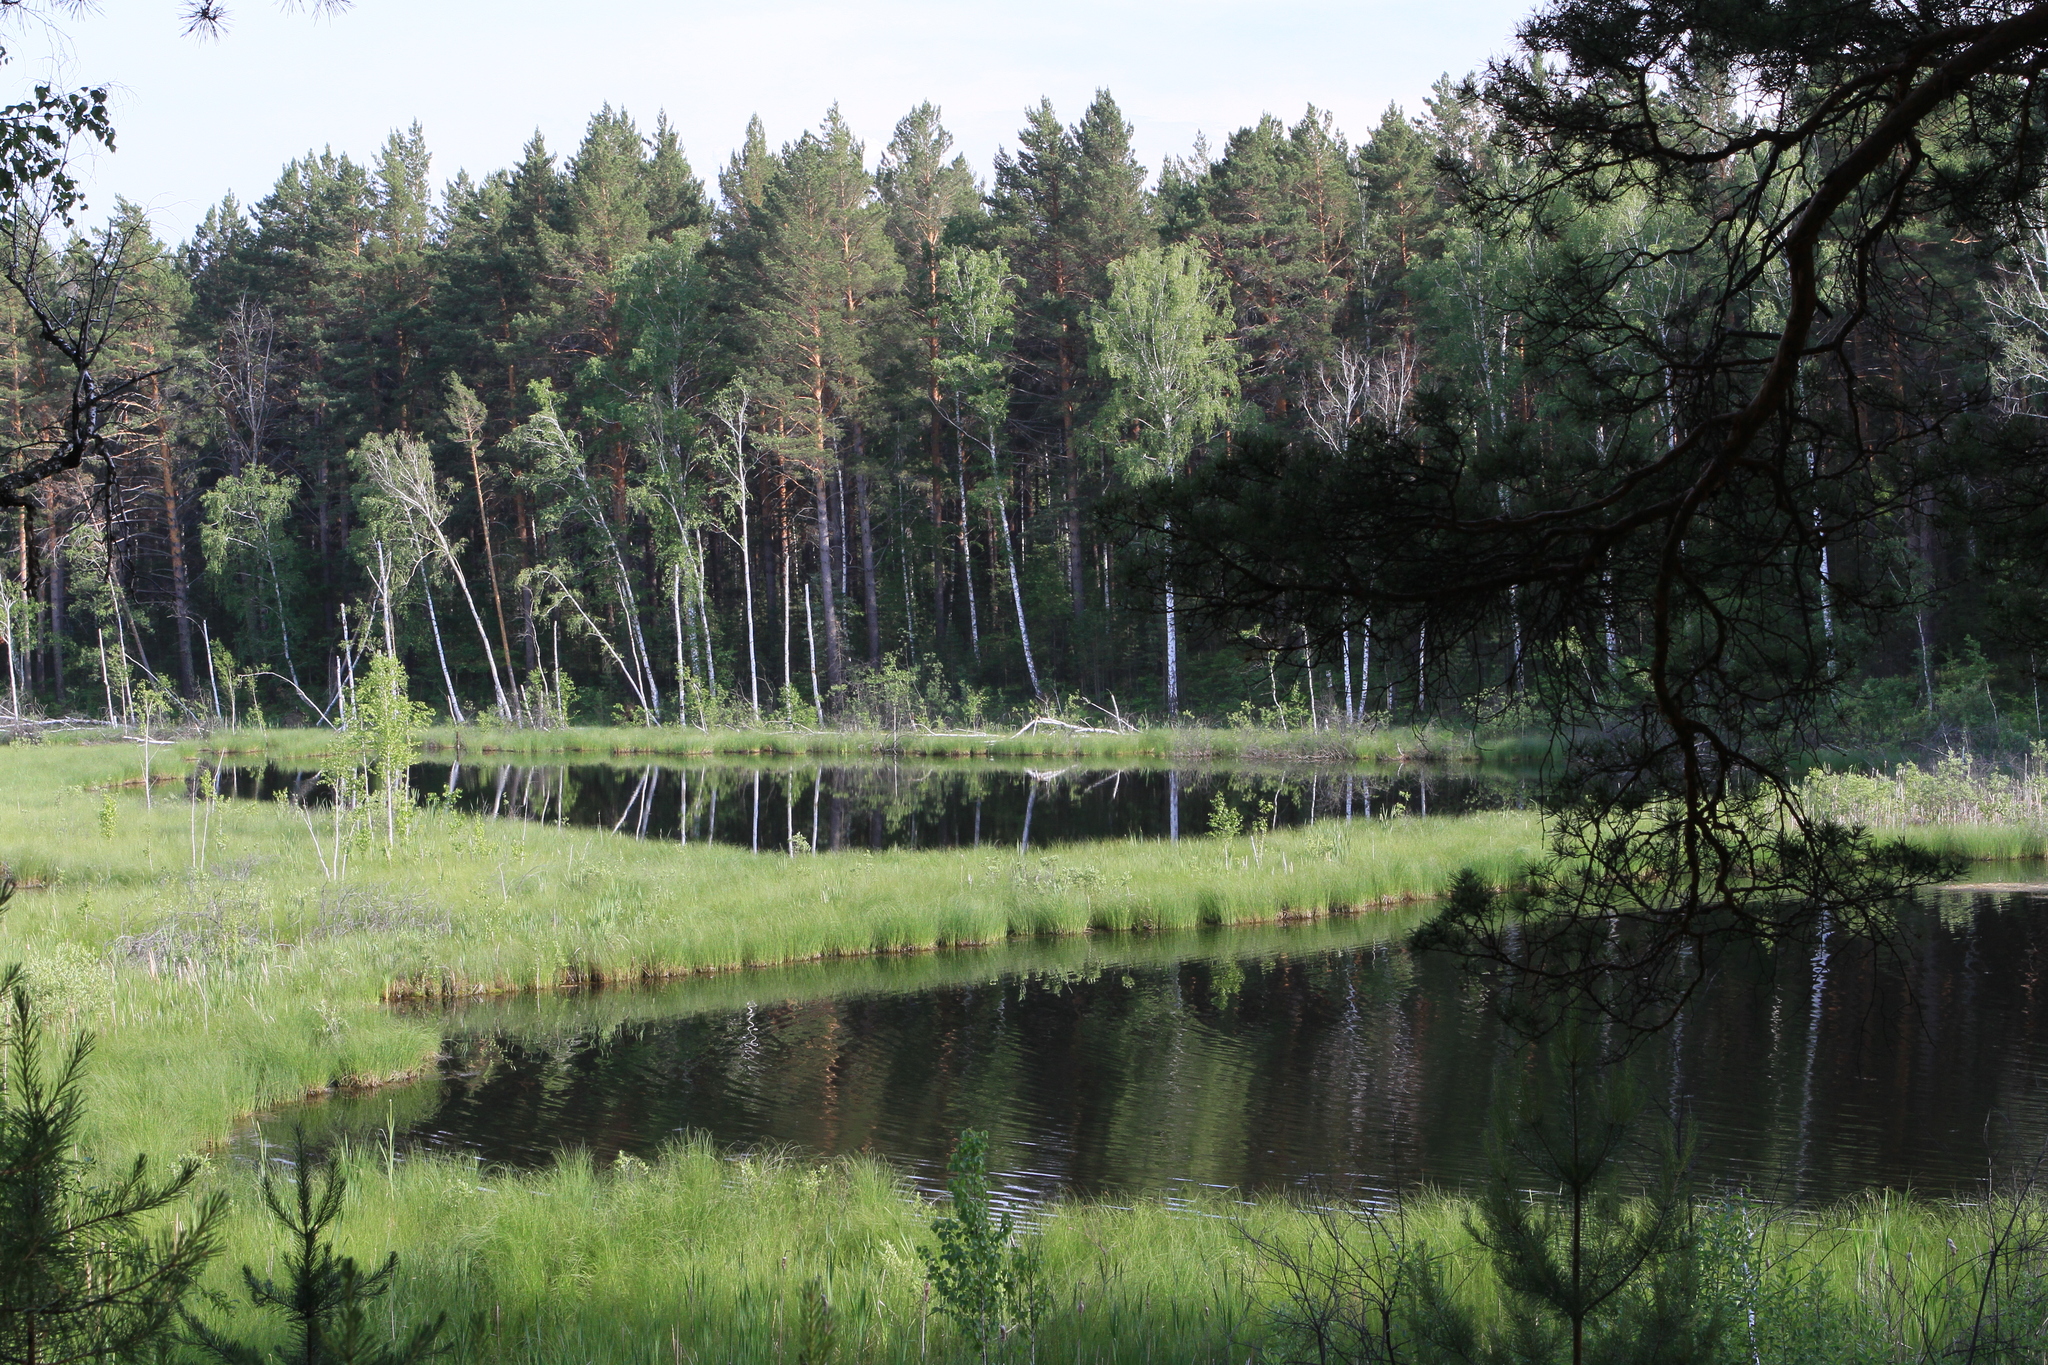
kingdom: Plantae
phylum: Tracheophyta
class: Pinopsida
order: Pinales
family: Pinaceae
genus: Pinus
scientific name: Pinus sylvestris
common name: Scots pine
